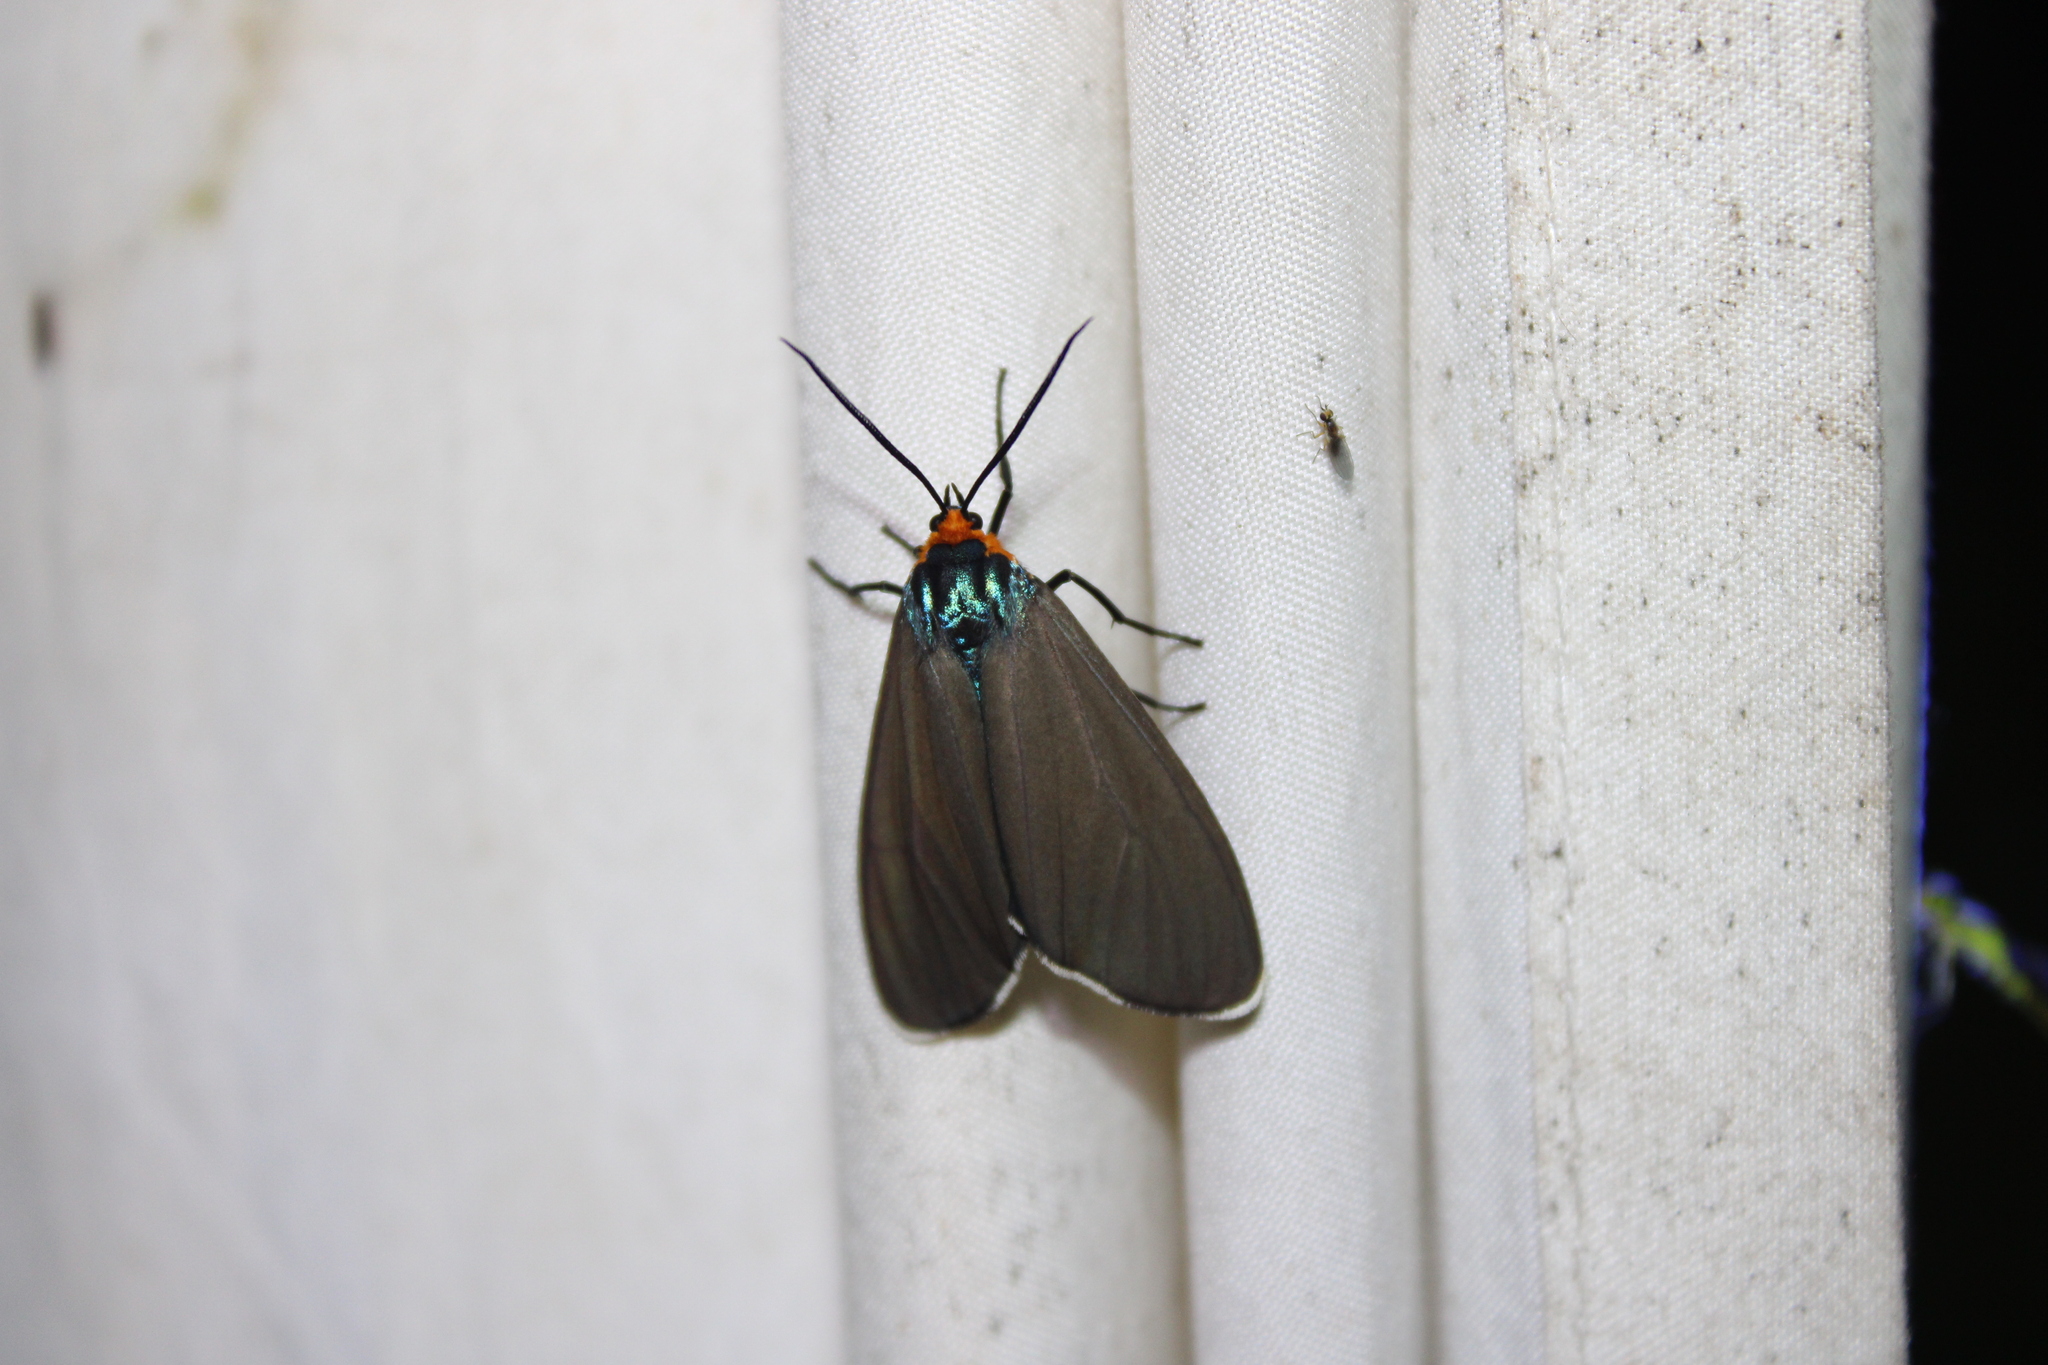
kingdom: Animalia
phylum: Arthropoda
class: Insecta
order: Lepidoptera
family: Erebidae
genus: Ctenucha
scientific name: Ctenucha virginica
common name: Virginia ctenucha moth
